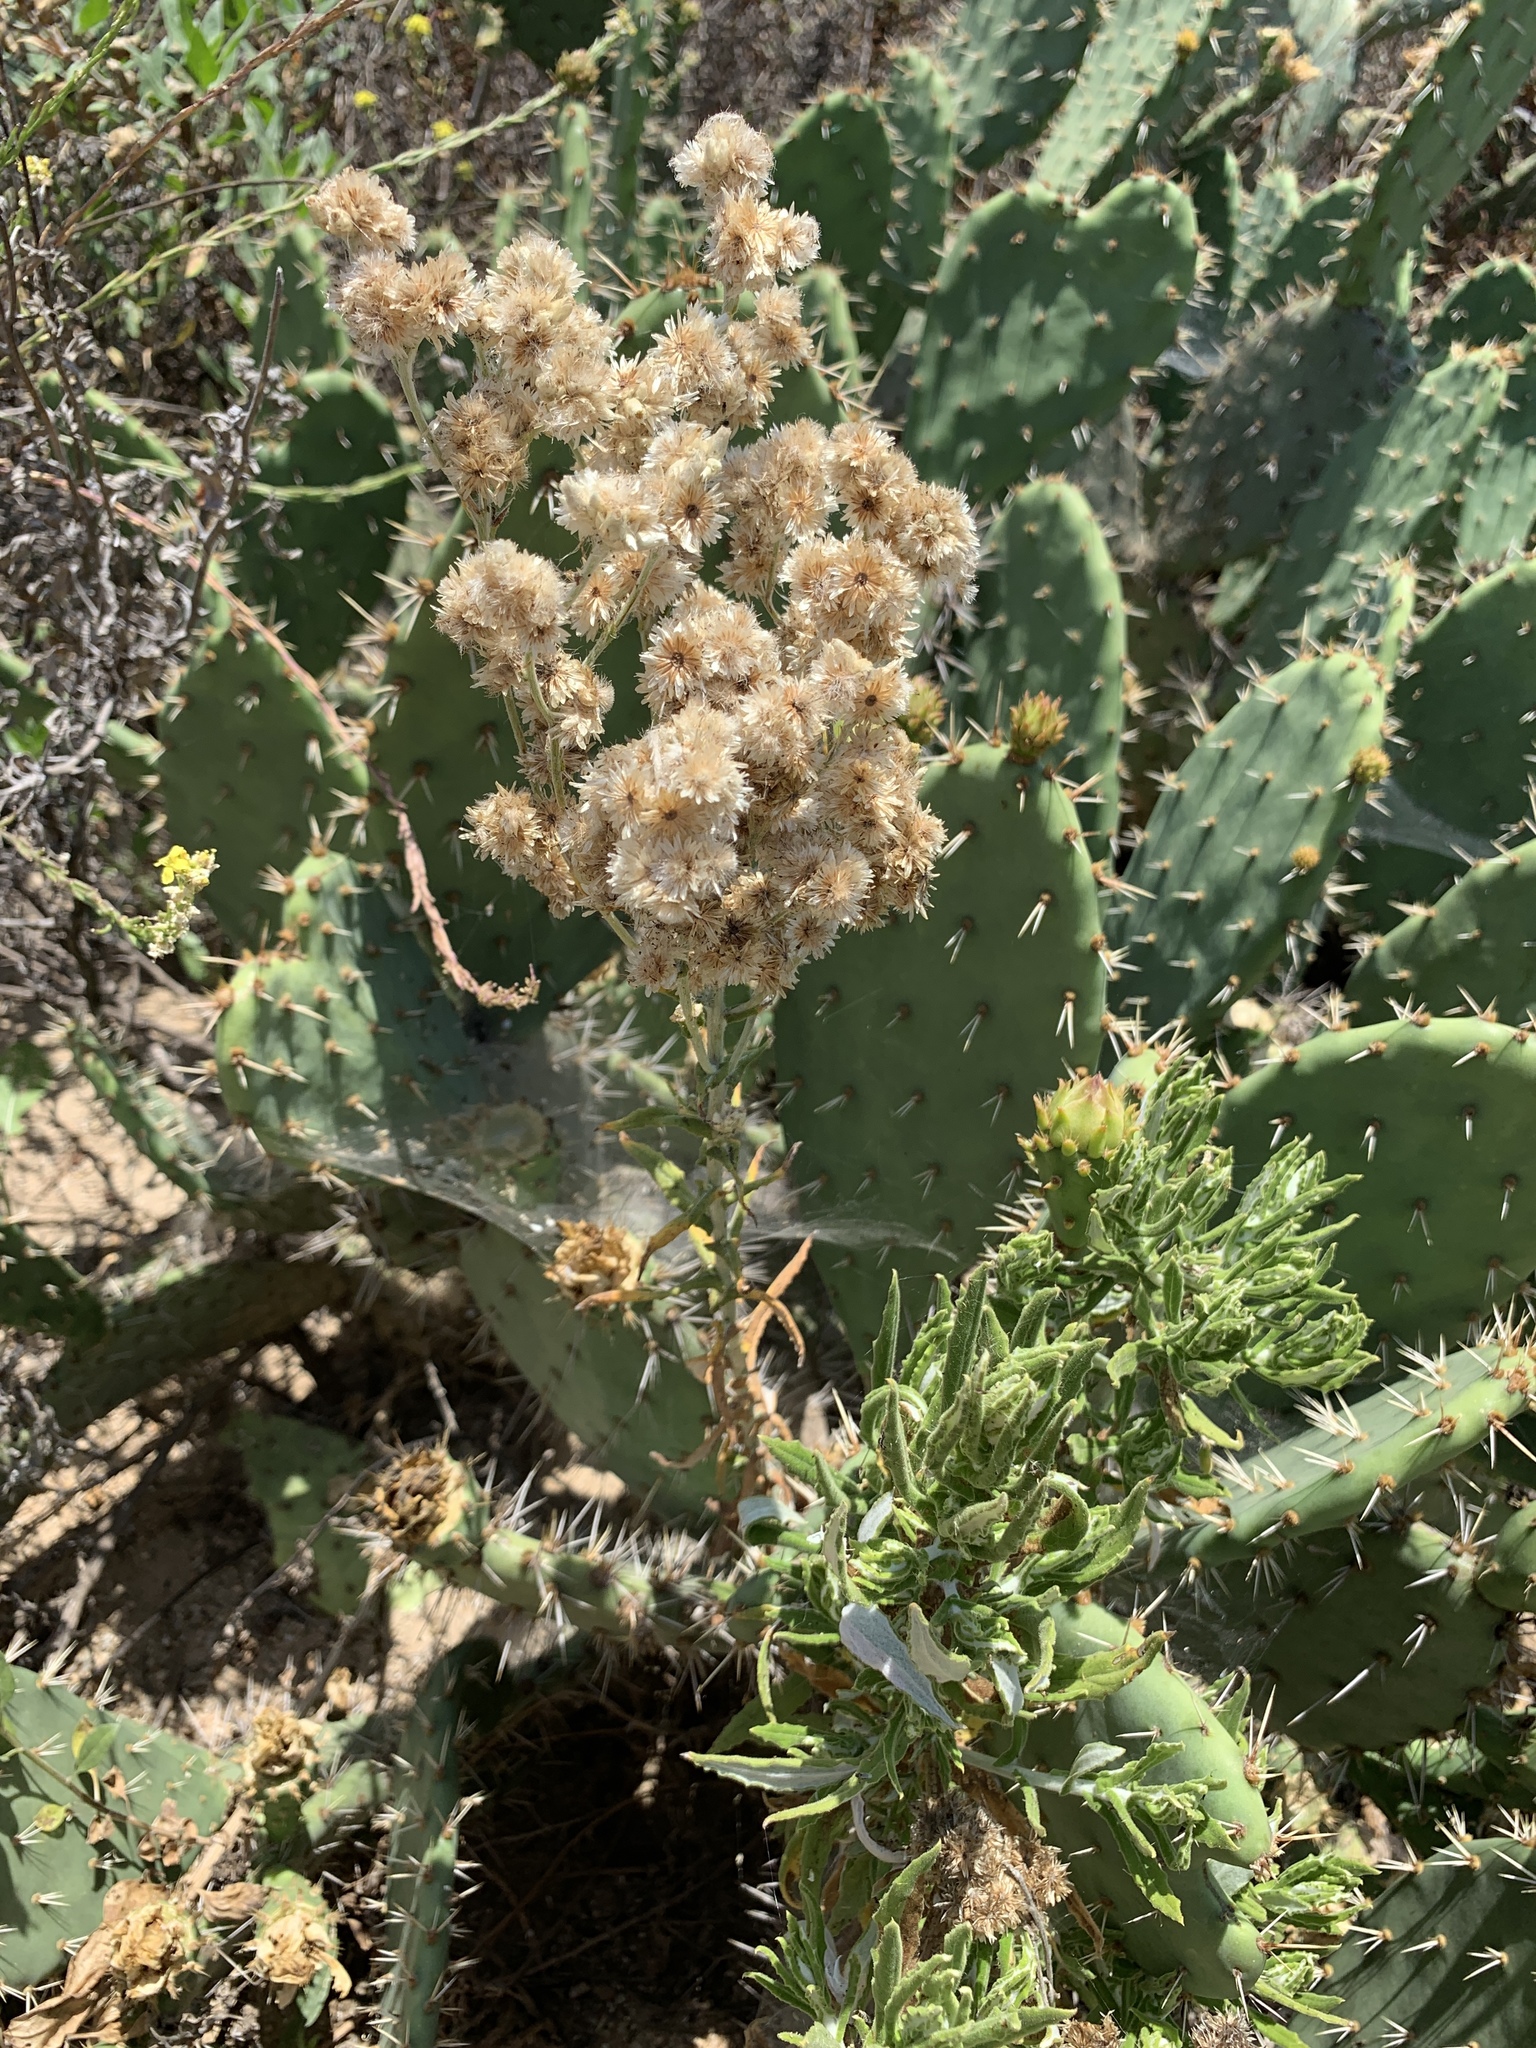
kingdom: Plantae
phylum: Tracheophyta
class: Magnoliopsida
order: Asterales
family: Asteraceae
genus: Pseudognaphalium
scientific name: Pseudognaphalium californicum
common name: California rabbit-tobacco
